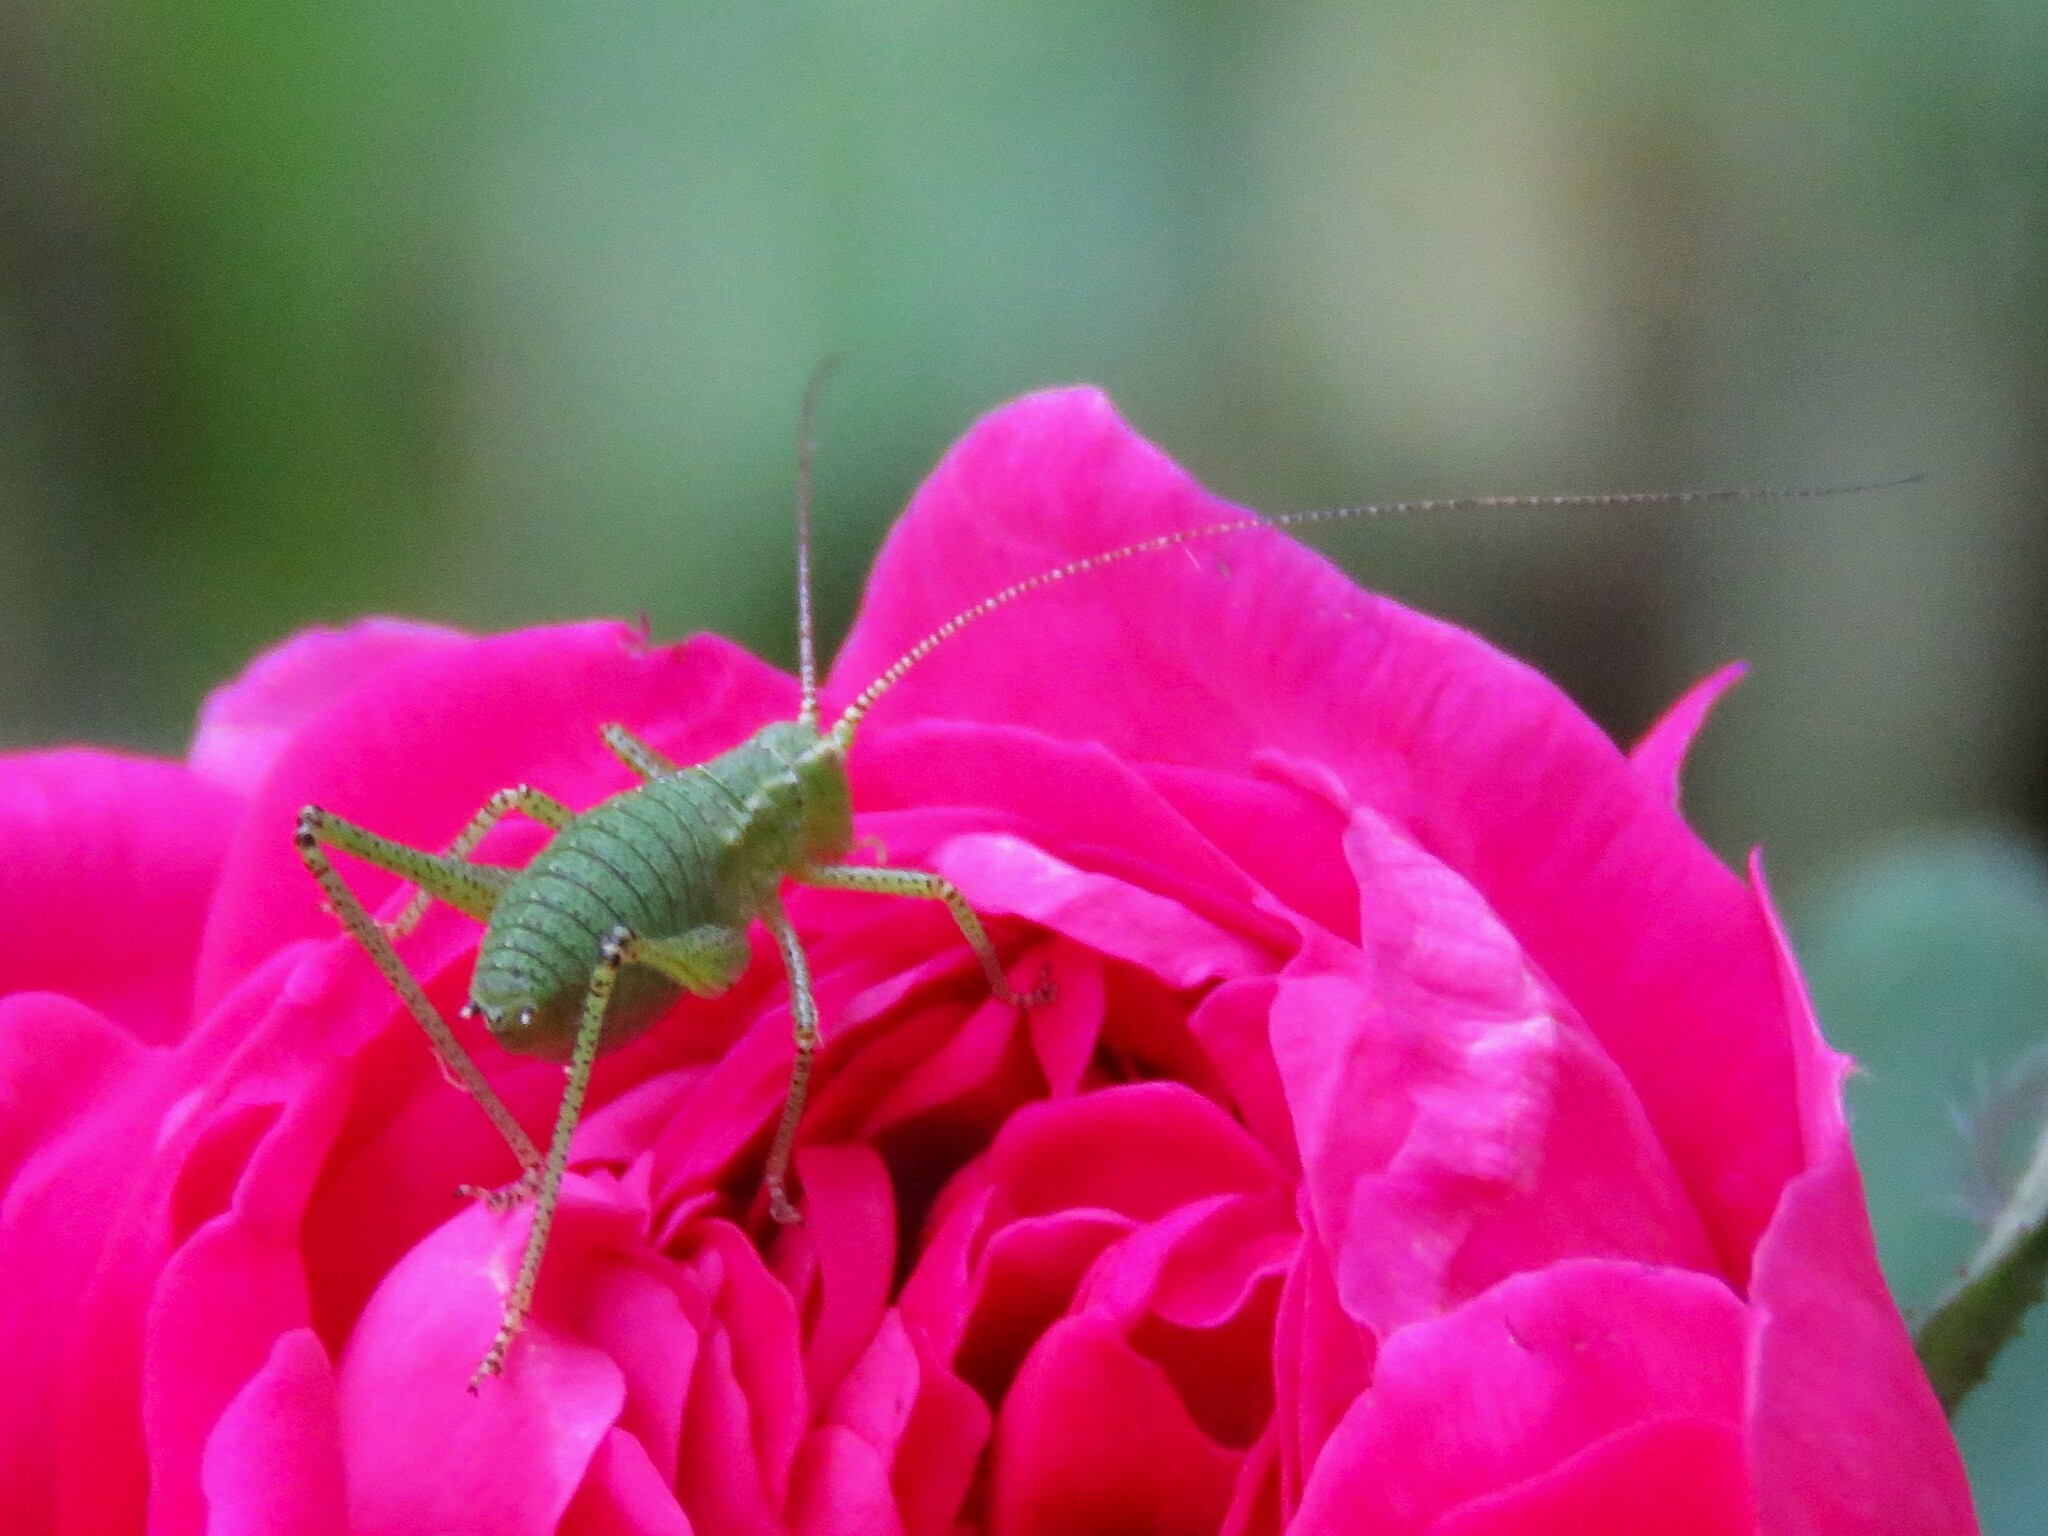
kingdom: Animalia
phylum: Arthropoda
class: Insecta
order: Orthoptera
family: Tettigoniidae
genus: Leptophyes
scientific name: Leptophyes punctatissima
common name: Speckled bush-cricket
